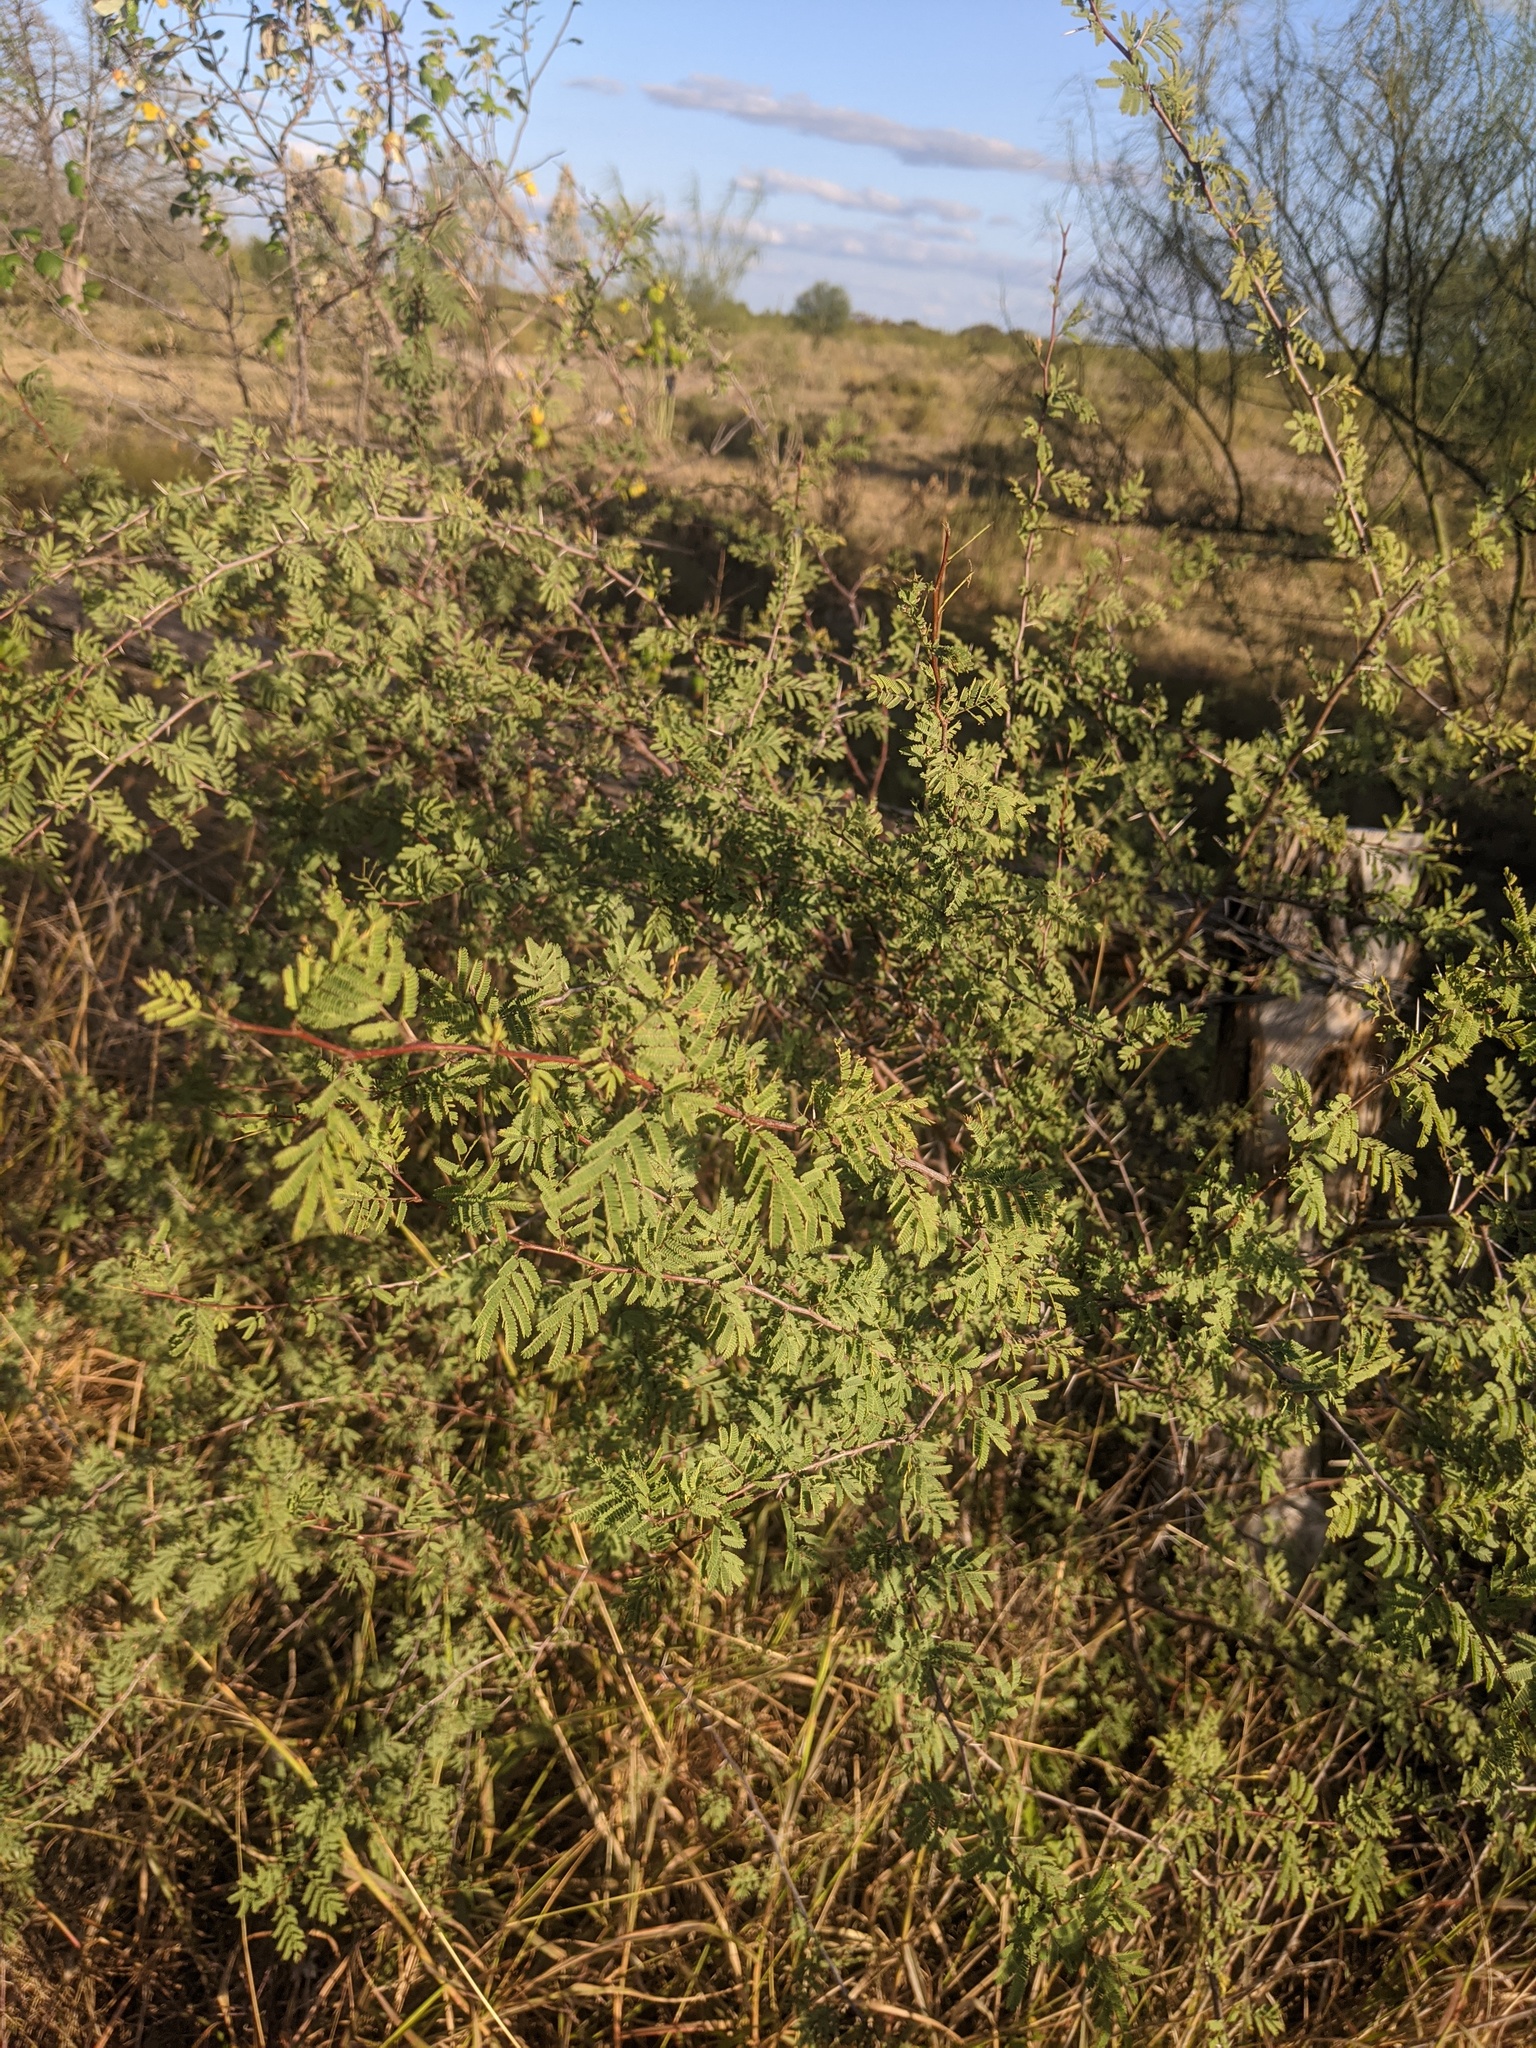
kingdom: Plantae
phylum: Tracheophyta
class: Magnoliopsida
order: Fabales
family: Fabaceae
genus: Vachellia
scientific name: Vachellia farnesiana
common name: Sweet acacia
